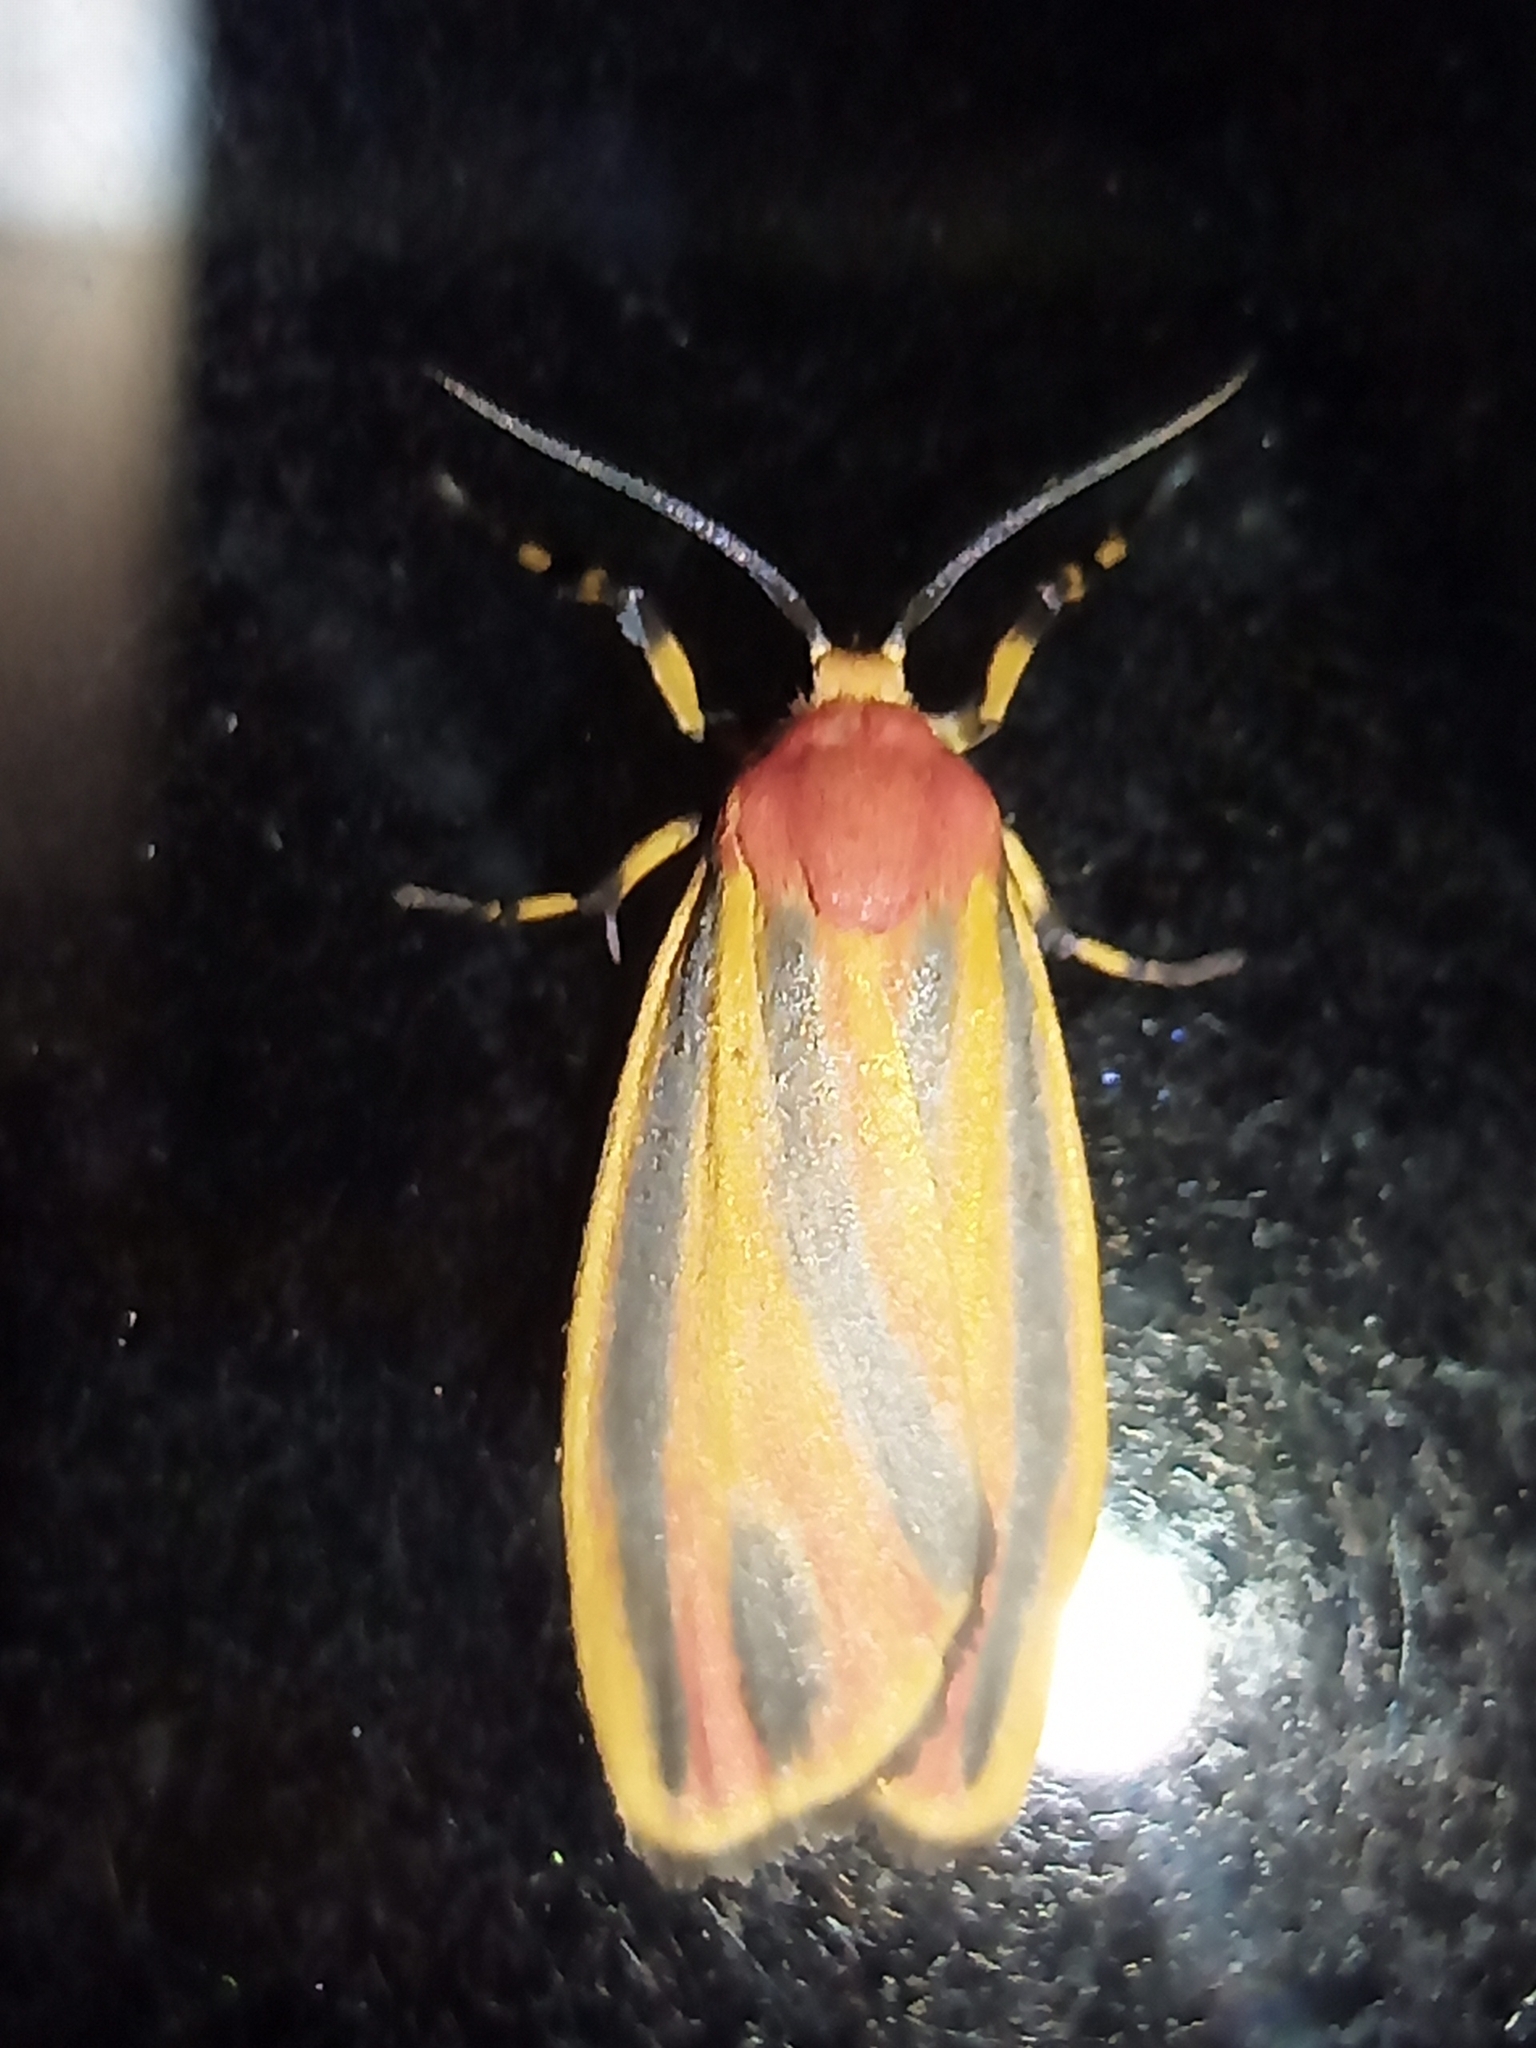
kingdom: Animalia
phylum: Arthropoda
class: Insecta
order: Lepidoptera
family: Erebidae
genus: Hypoprepia
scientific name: Hypoprepia fucosa
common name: Painted lichen moth
